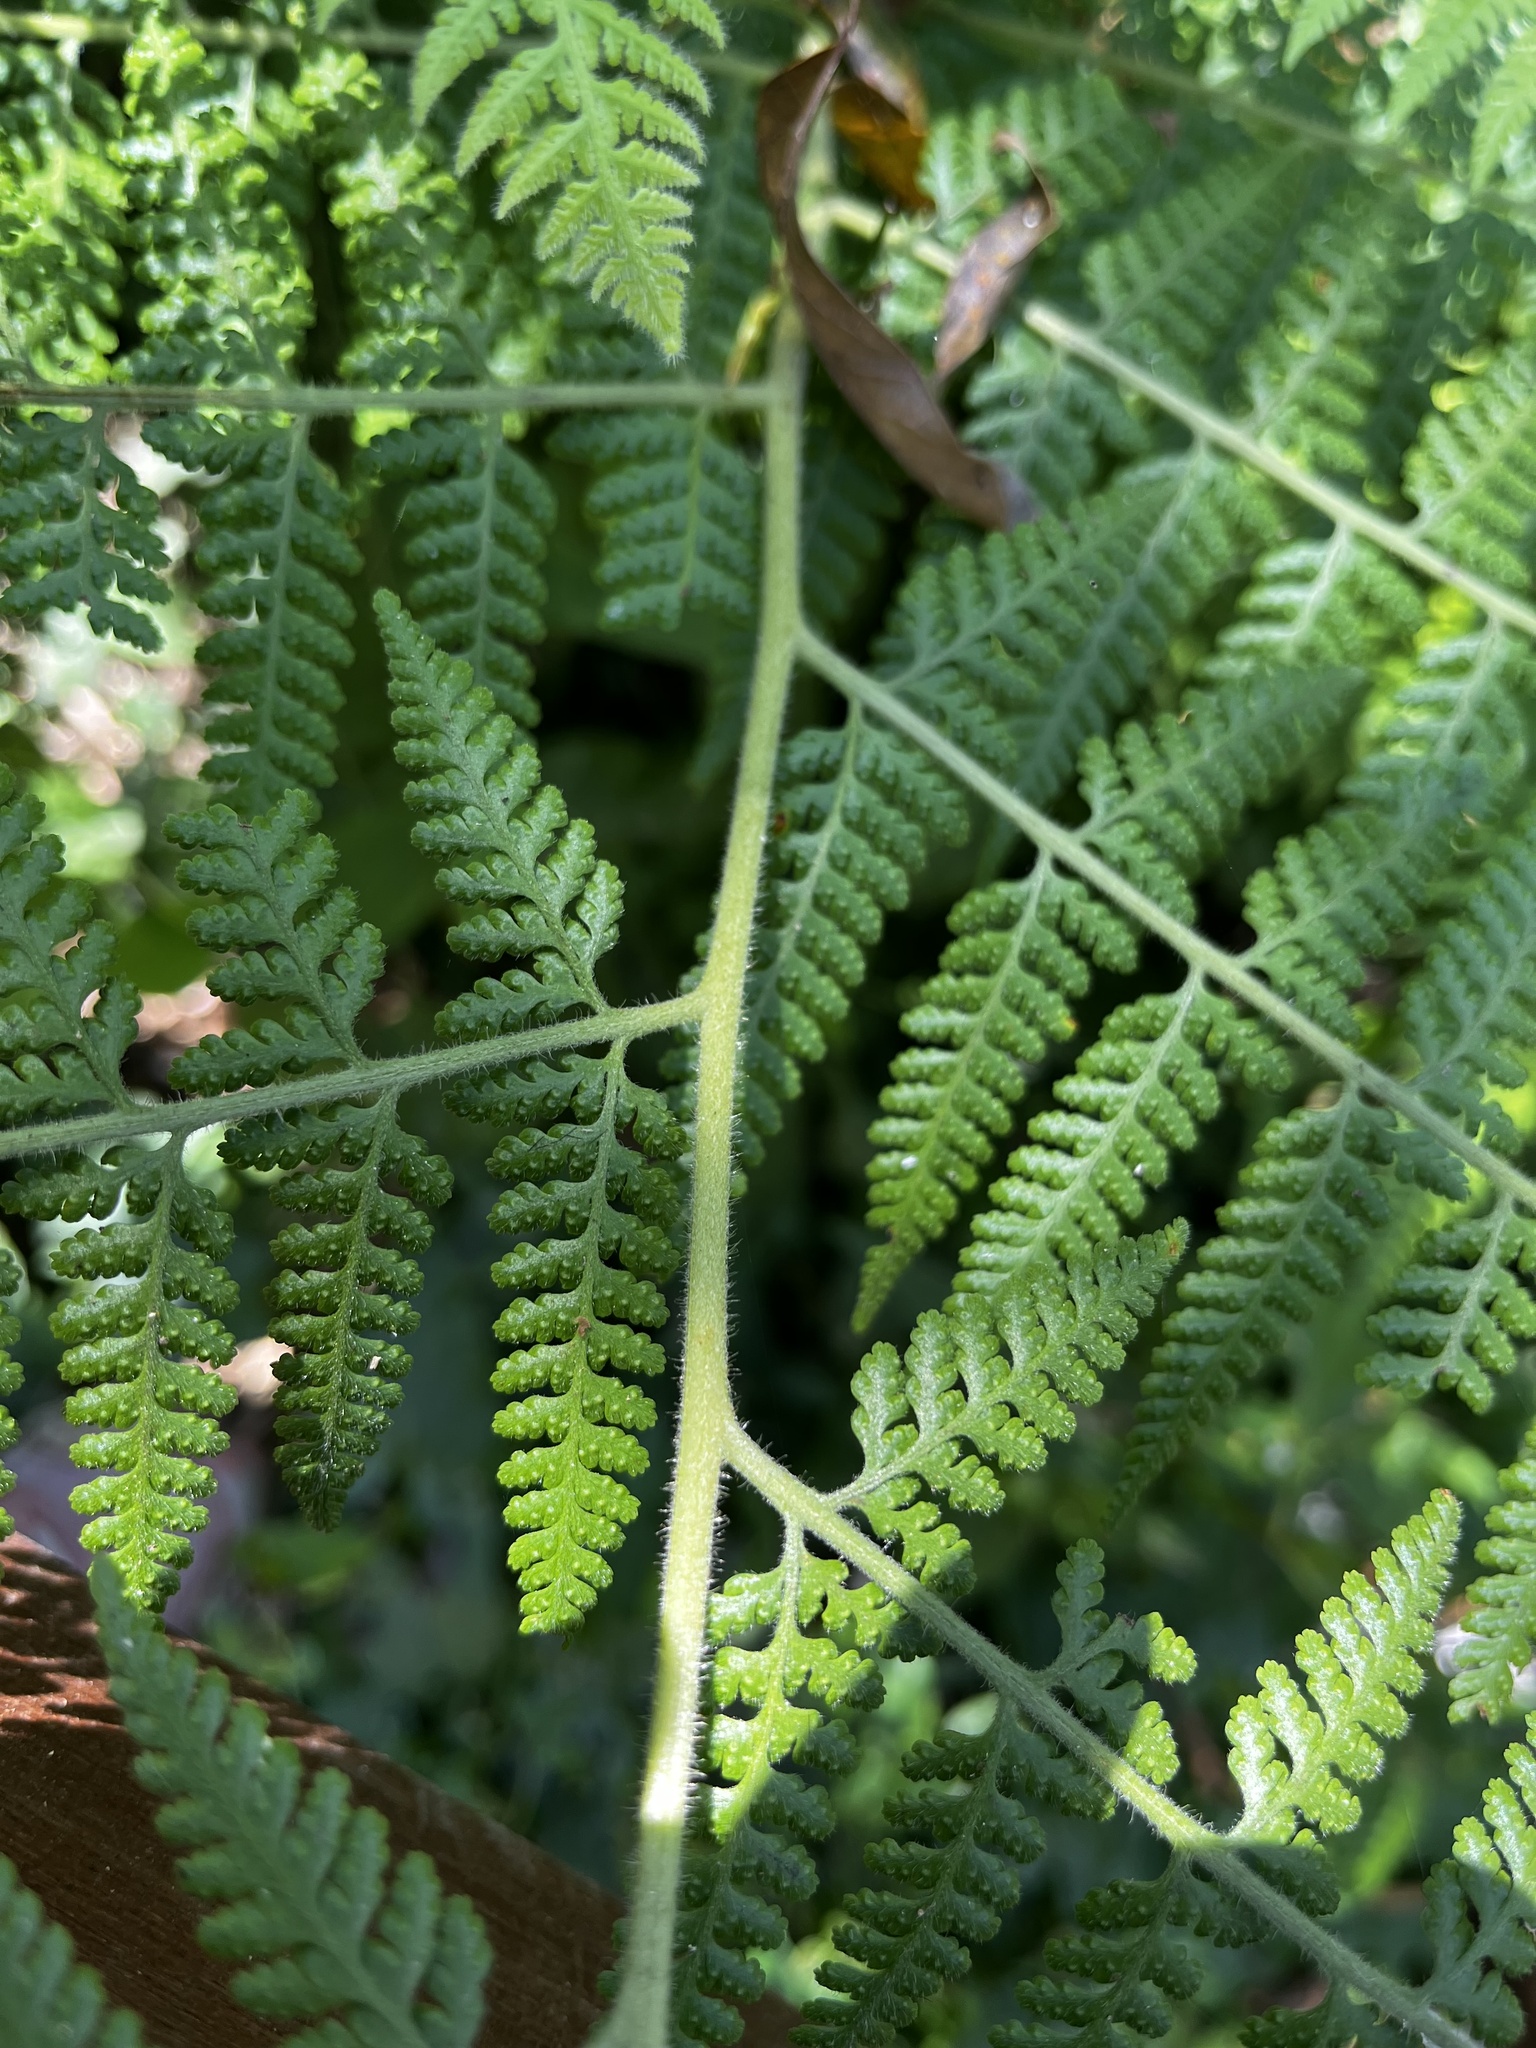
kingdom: Plantae
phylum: Tracheophyta
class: Polypodiopsida
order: Polypodiales
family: Dennstaedtiaceae
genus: Microlepia
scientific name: Microlepia speluncae
